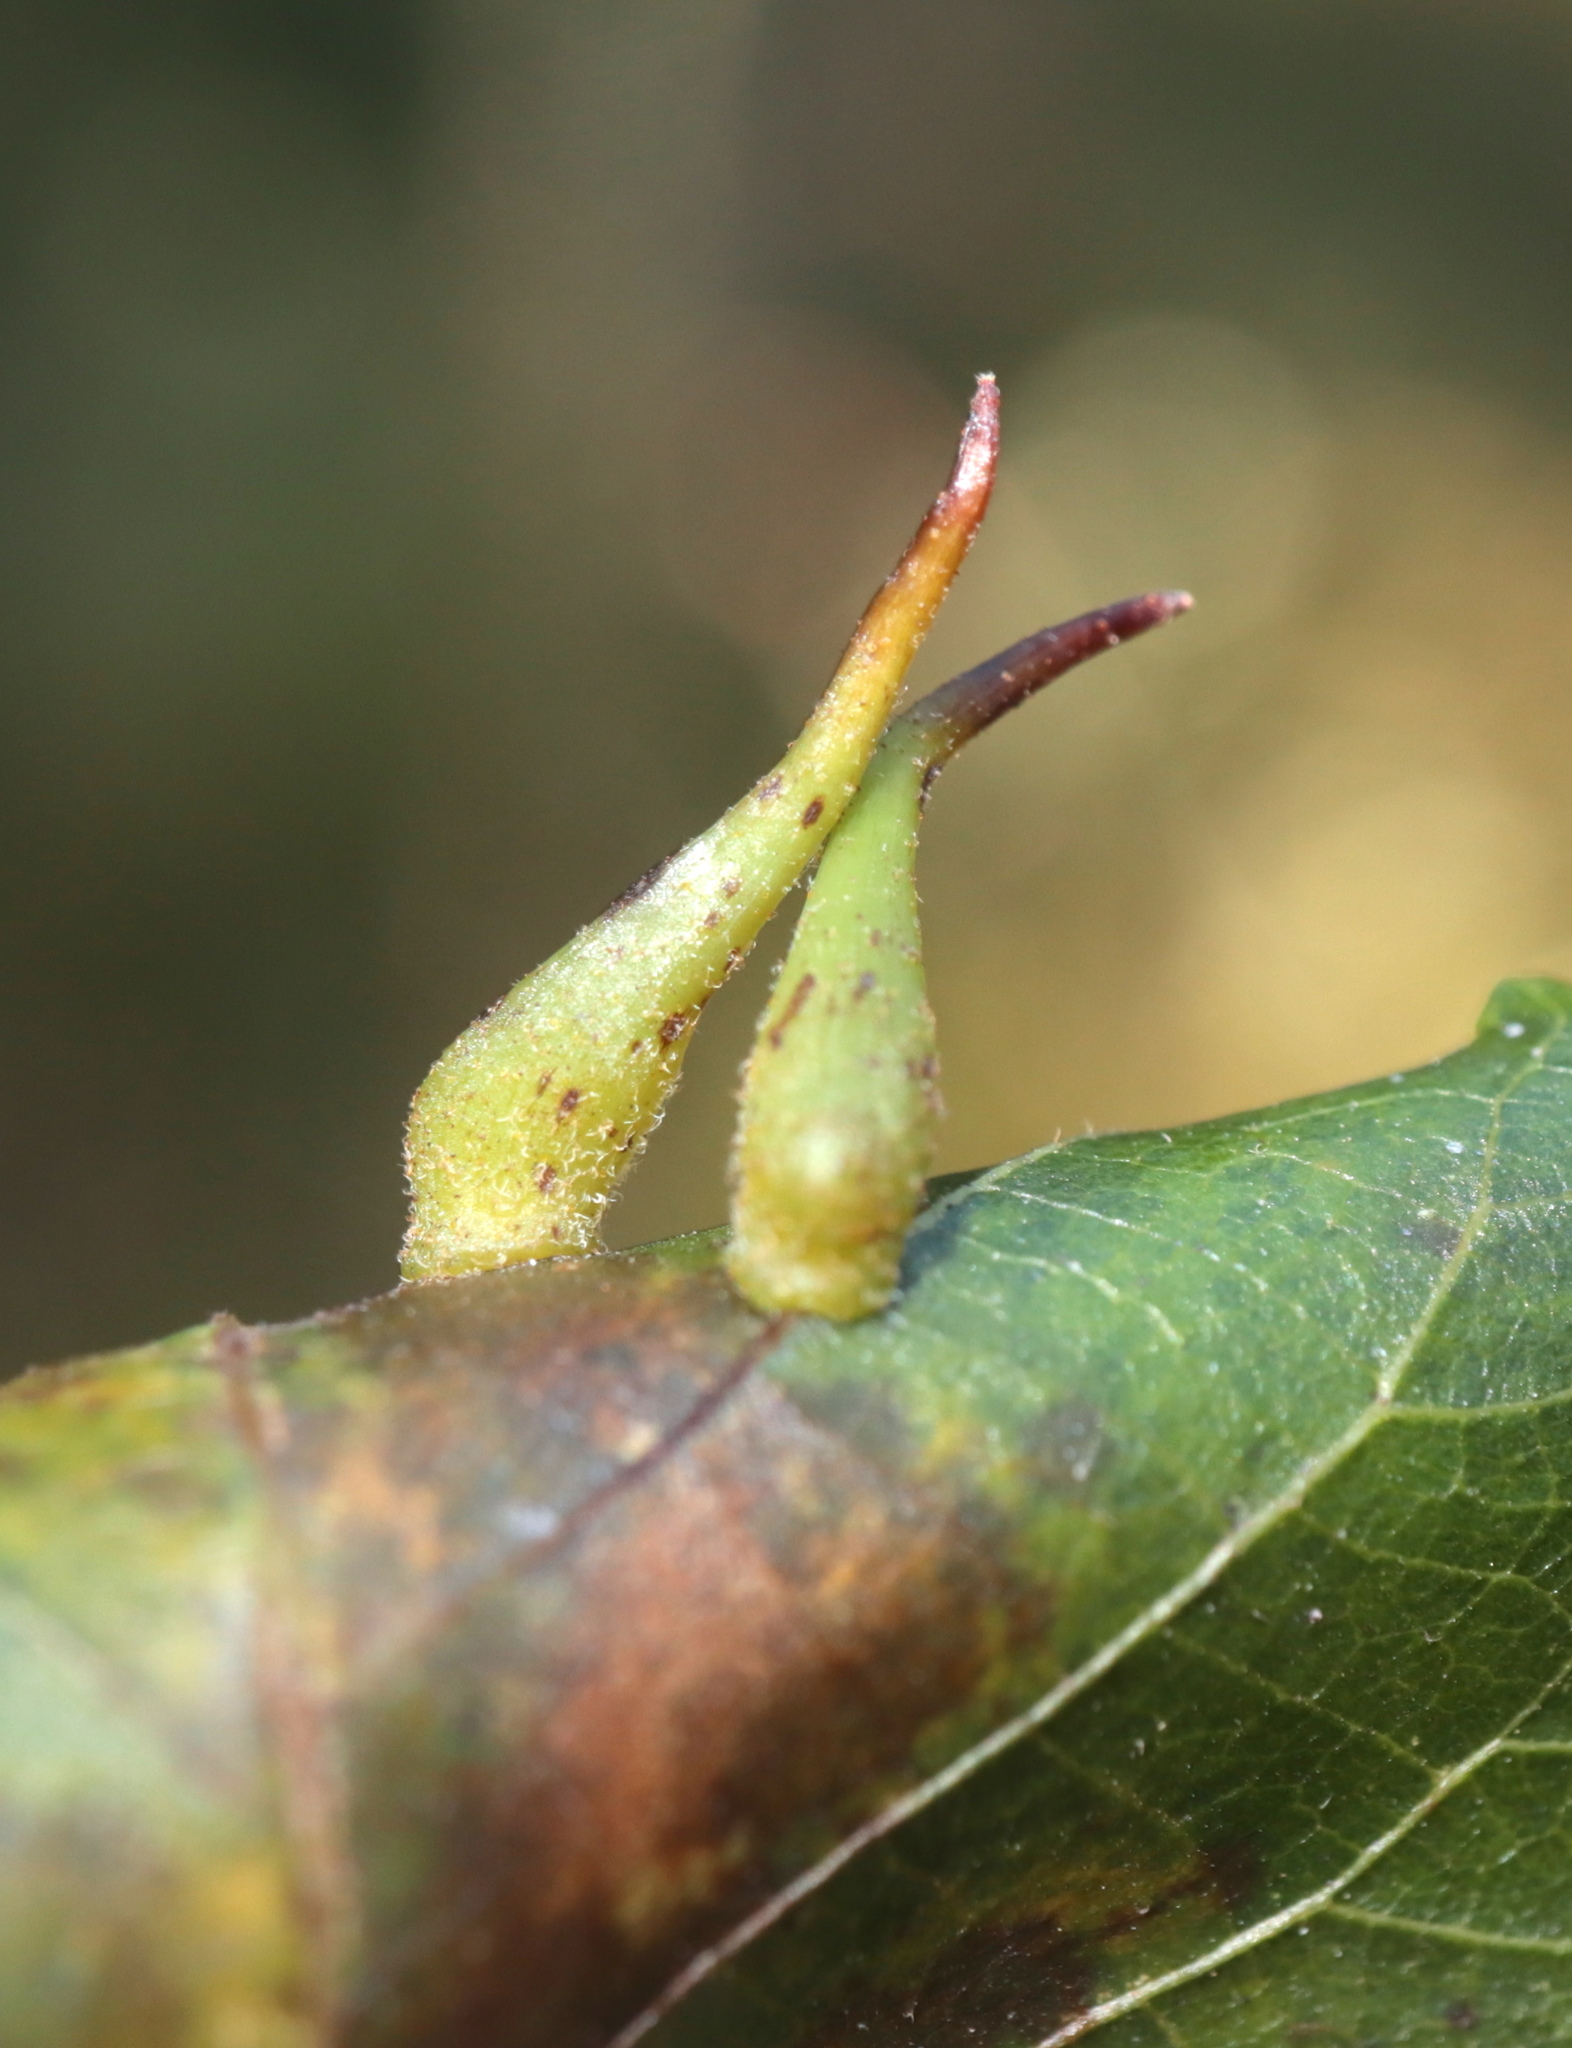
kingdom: Animalia
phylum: Arthropoda
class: Insecta
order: Diptera
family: Cecidomyiidae
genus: Caryomyia
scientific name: Caryomyia spinulosa
